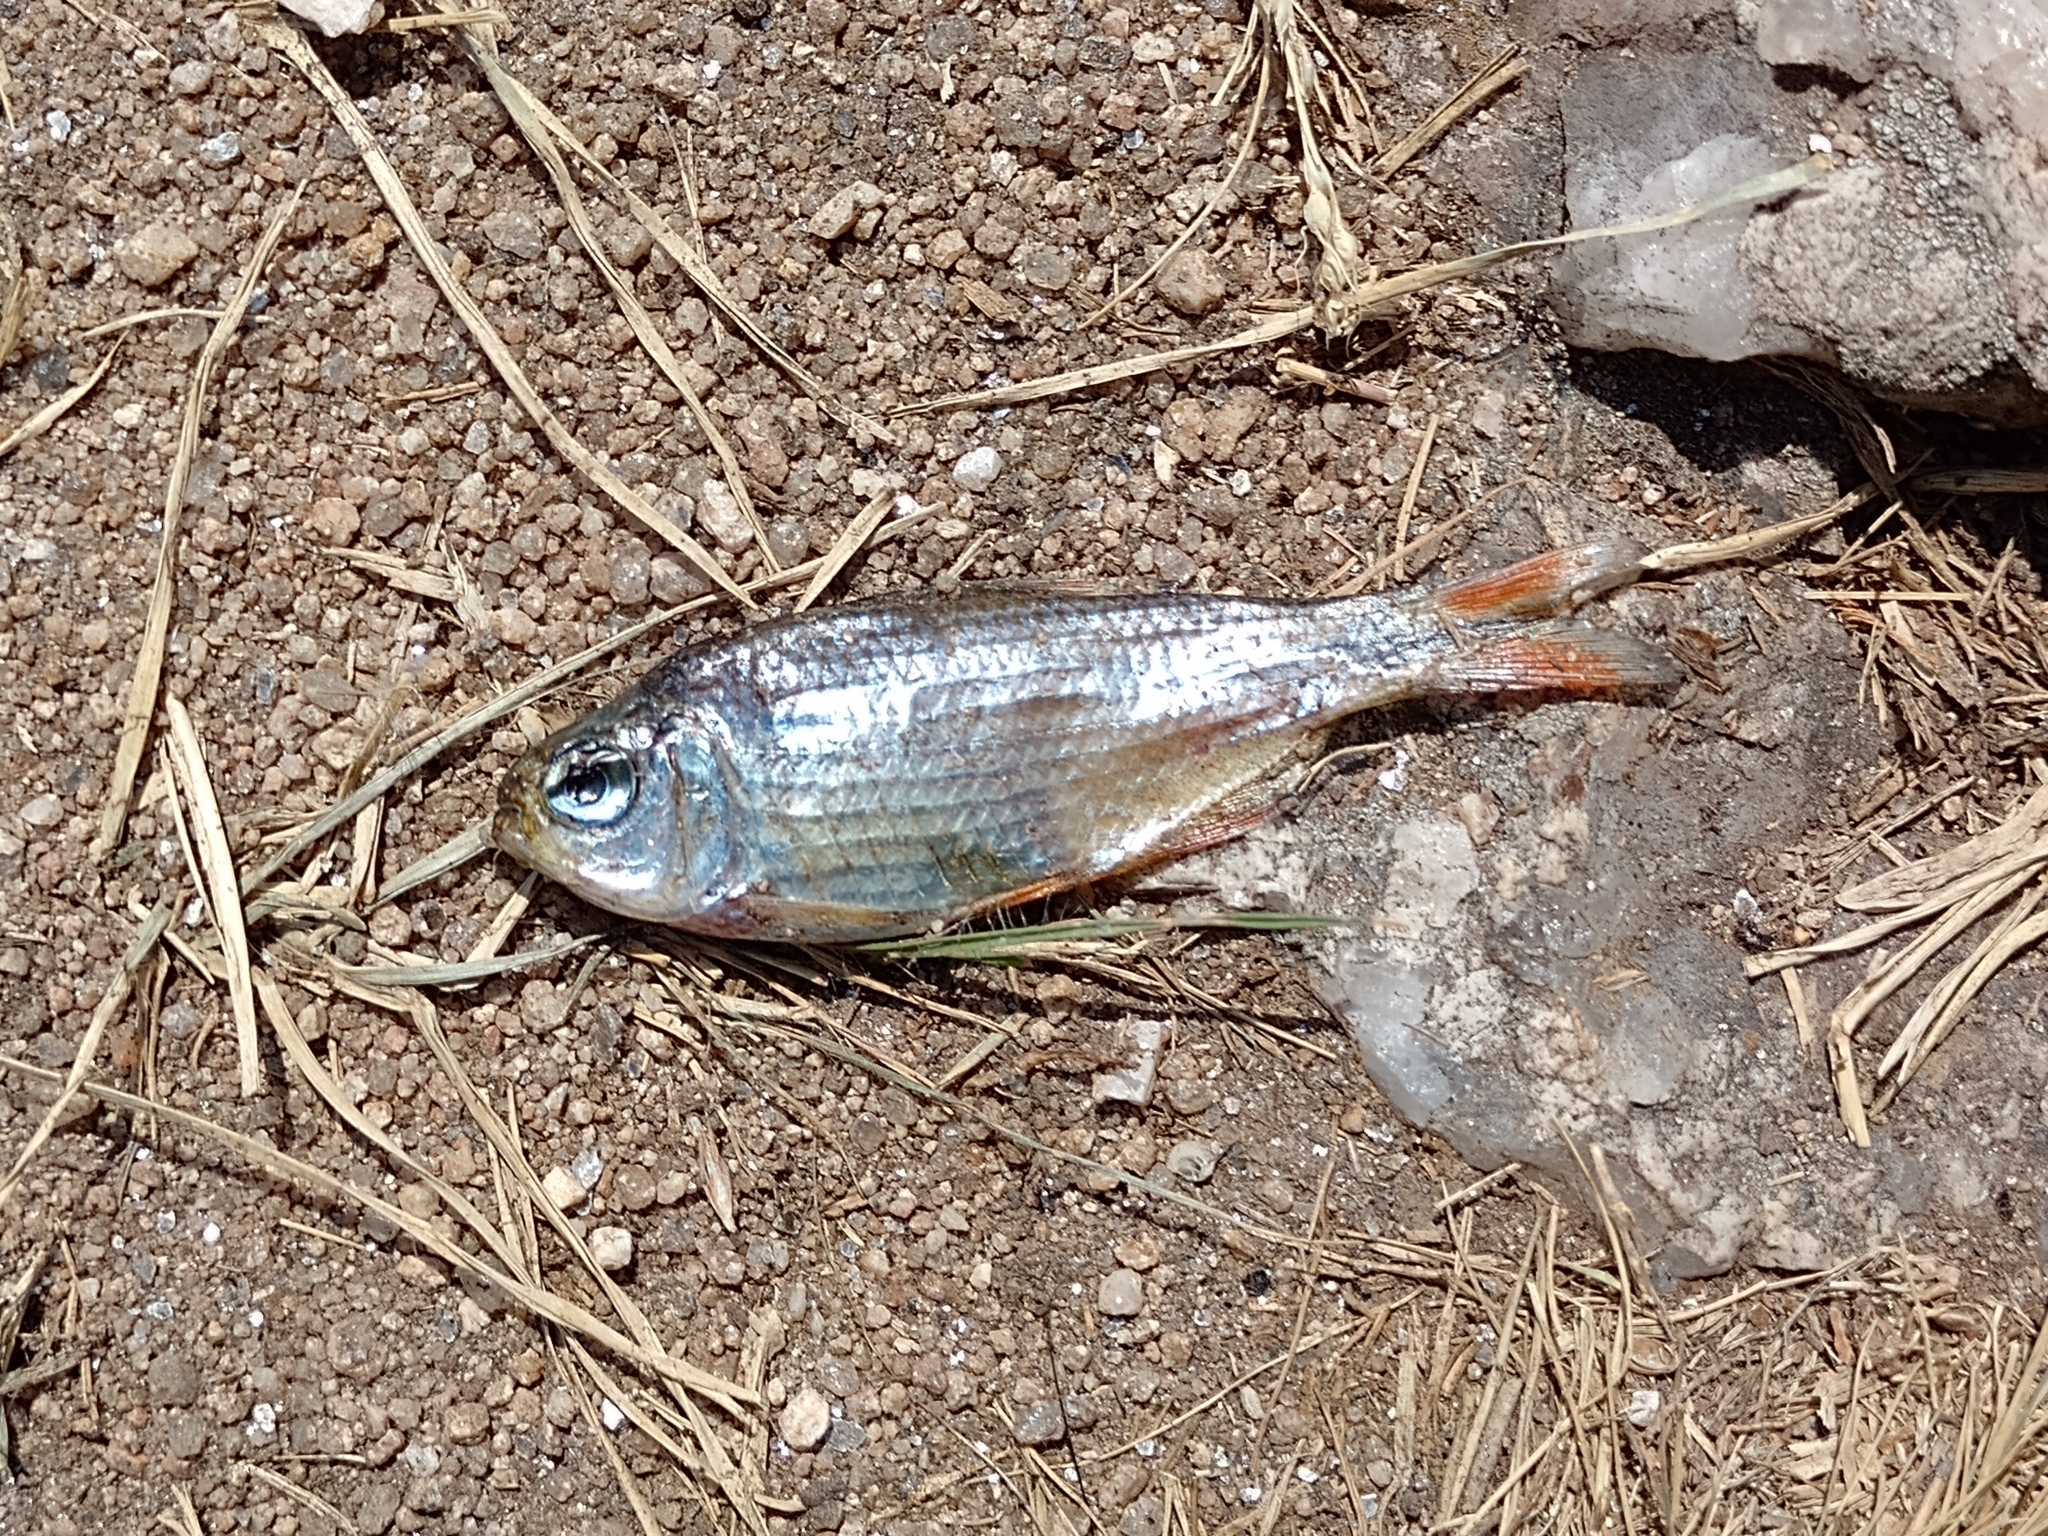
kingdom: Animalia
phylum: Chordata
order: Characiformes
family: Characidae
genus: Astyanax
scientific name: Astyanax eigenmanniorum
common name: Tetra
